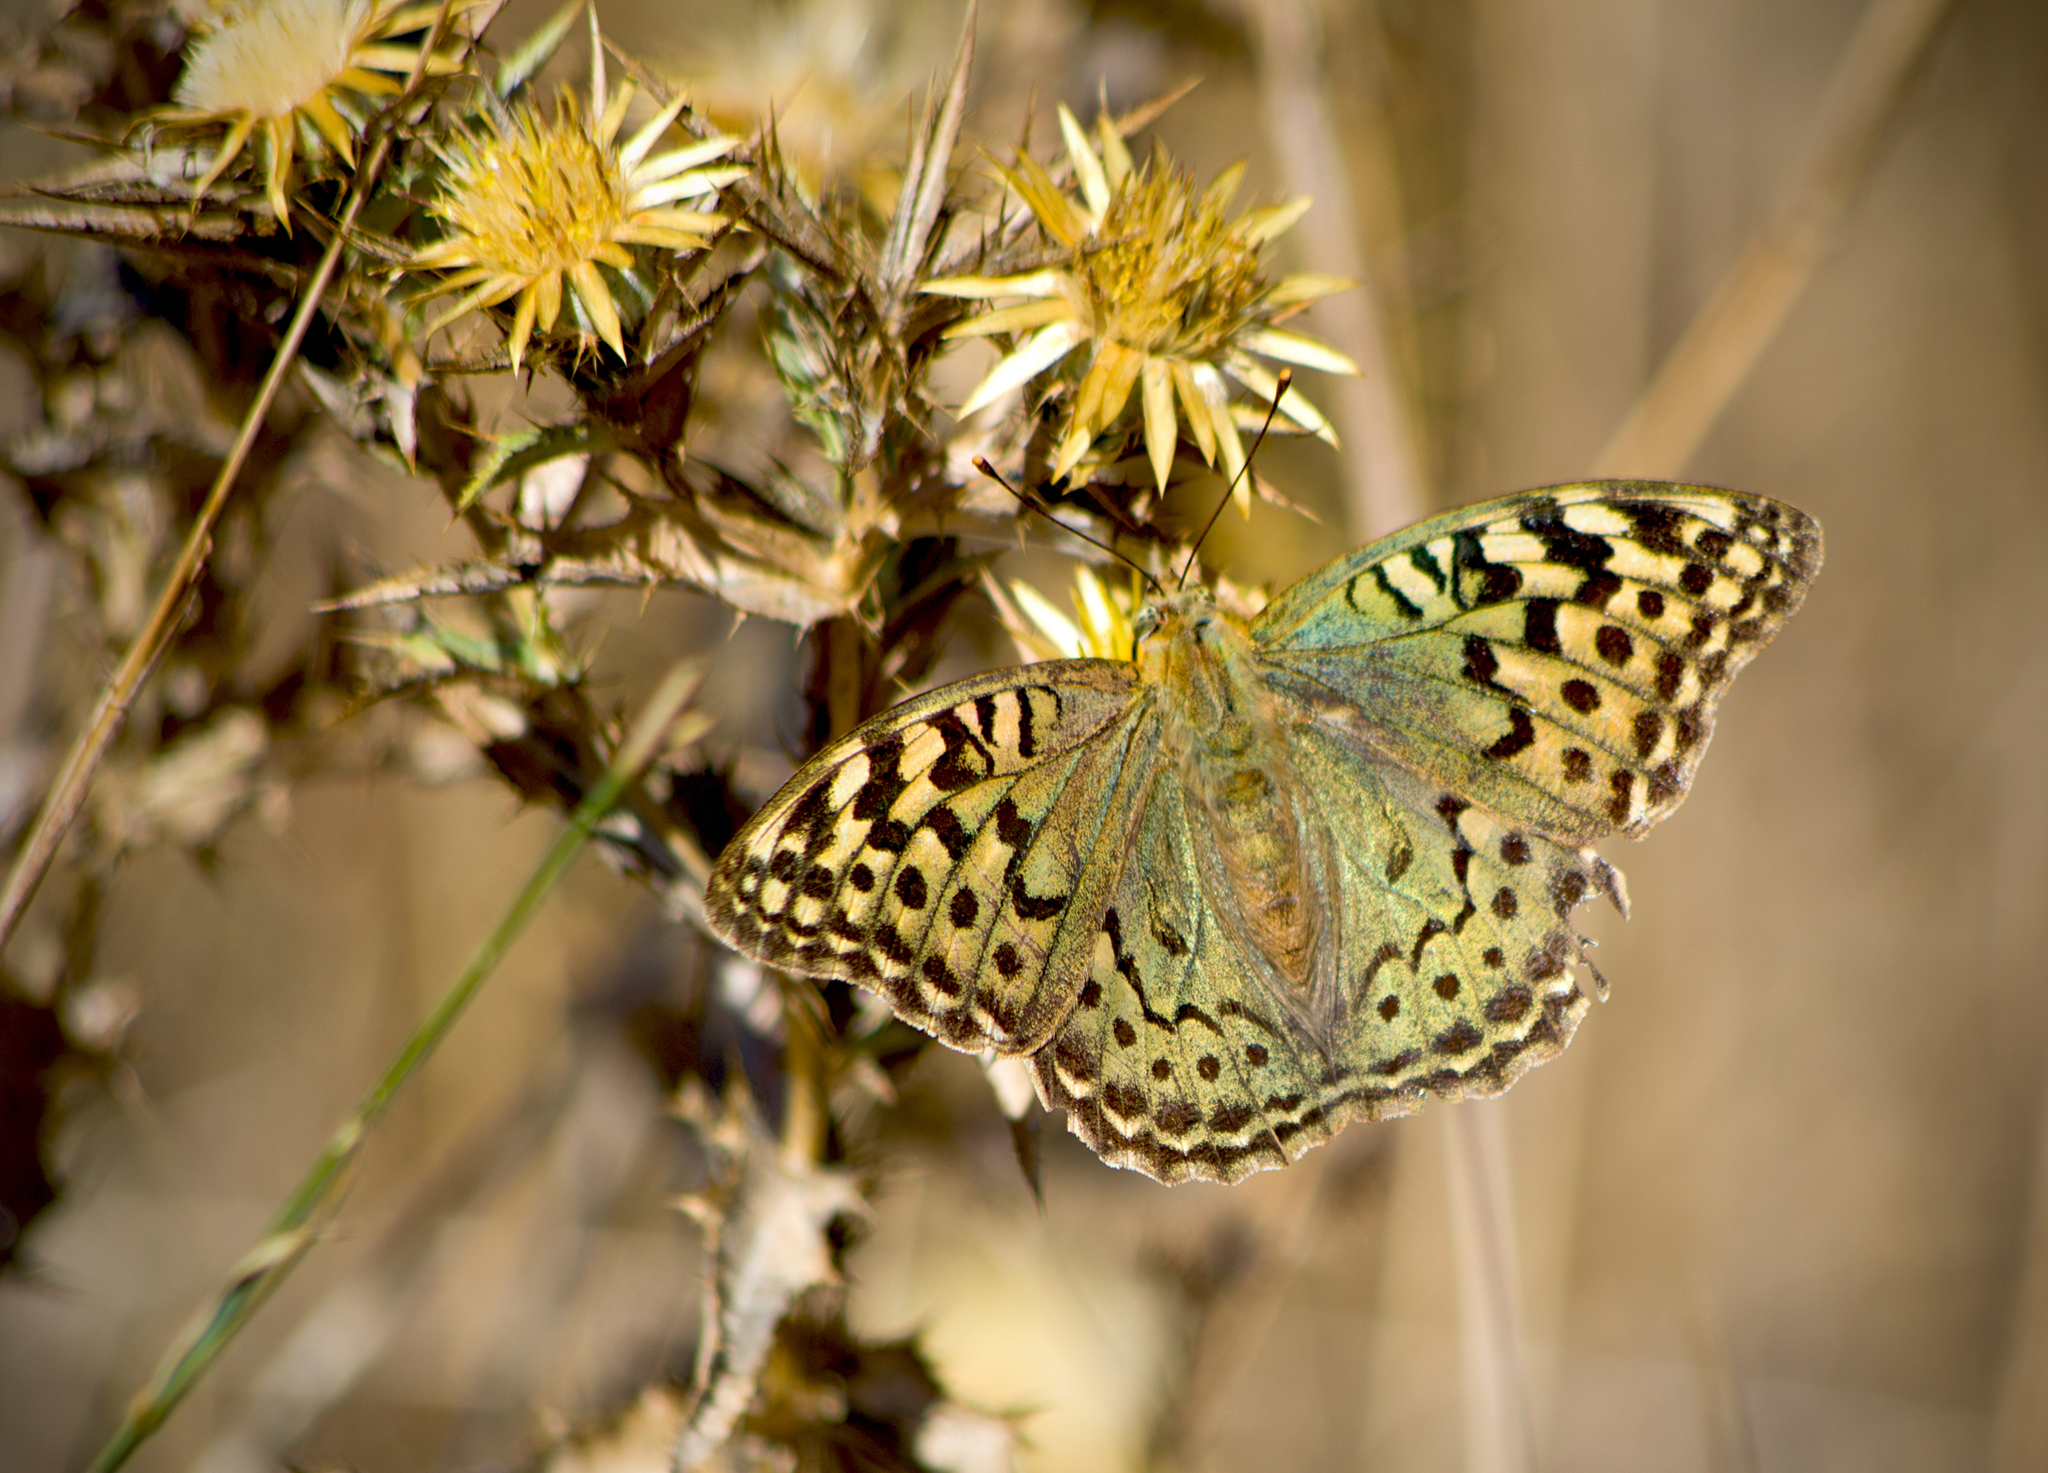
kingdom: Animalia
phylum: Arthropoda
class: Insecta
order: Lepidoptera
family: Nymphalidae
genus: Damora
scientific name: Damora pandora
